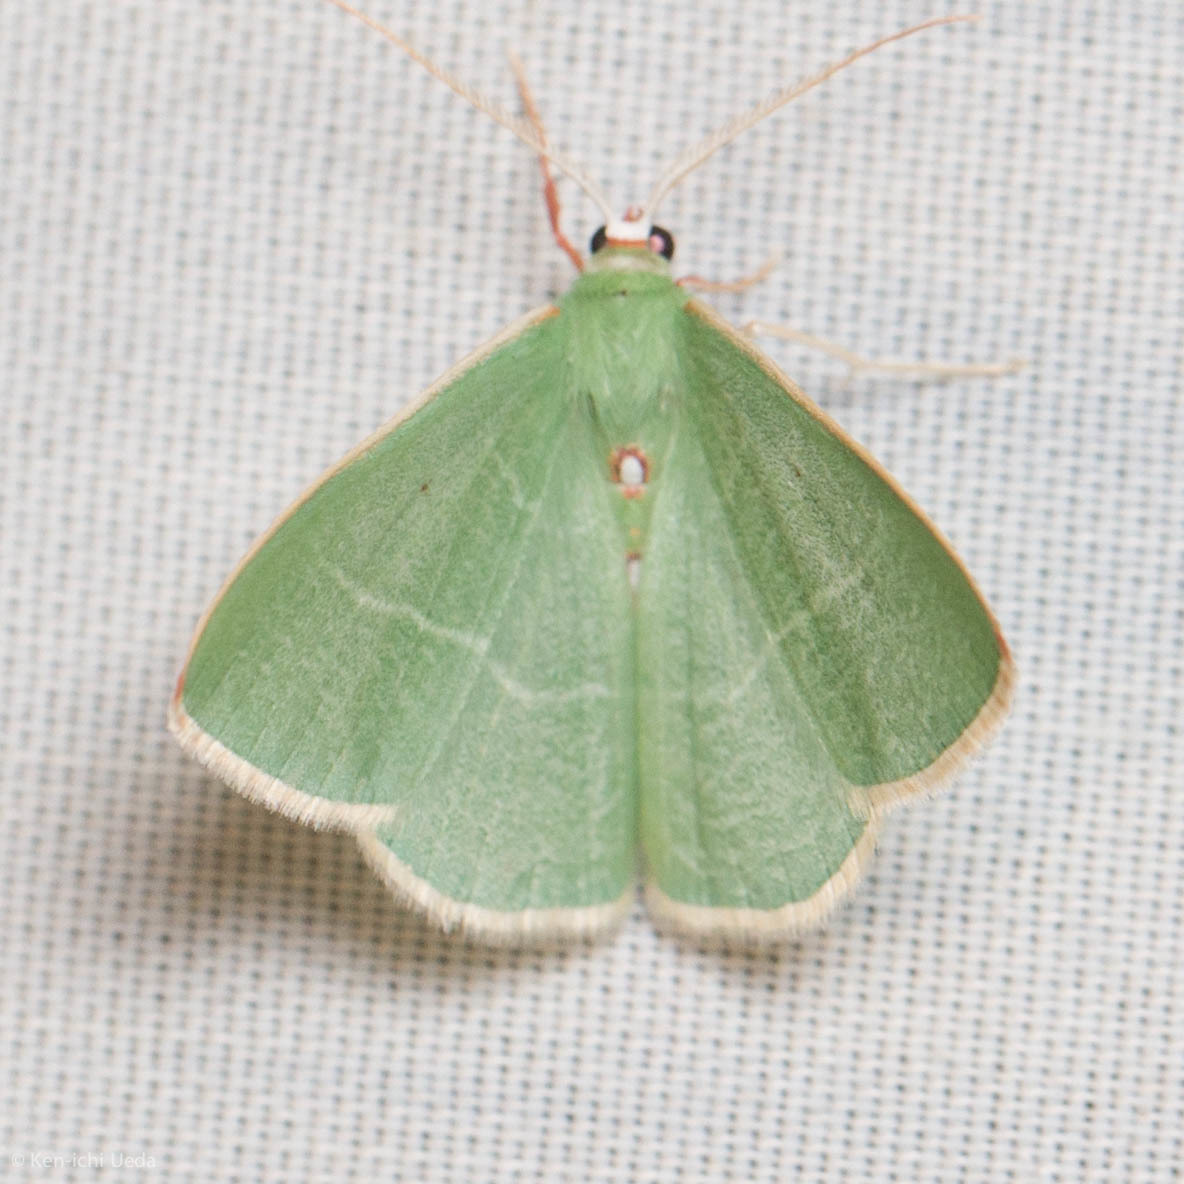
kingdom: Animalia
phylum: Arthropoda
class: Insecta
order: Lepidoptera
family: Geometridae
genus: Nemoria
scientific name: Nemoria darwiniata
